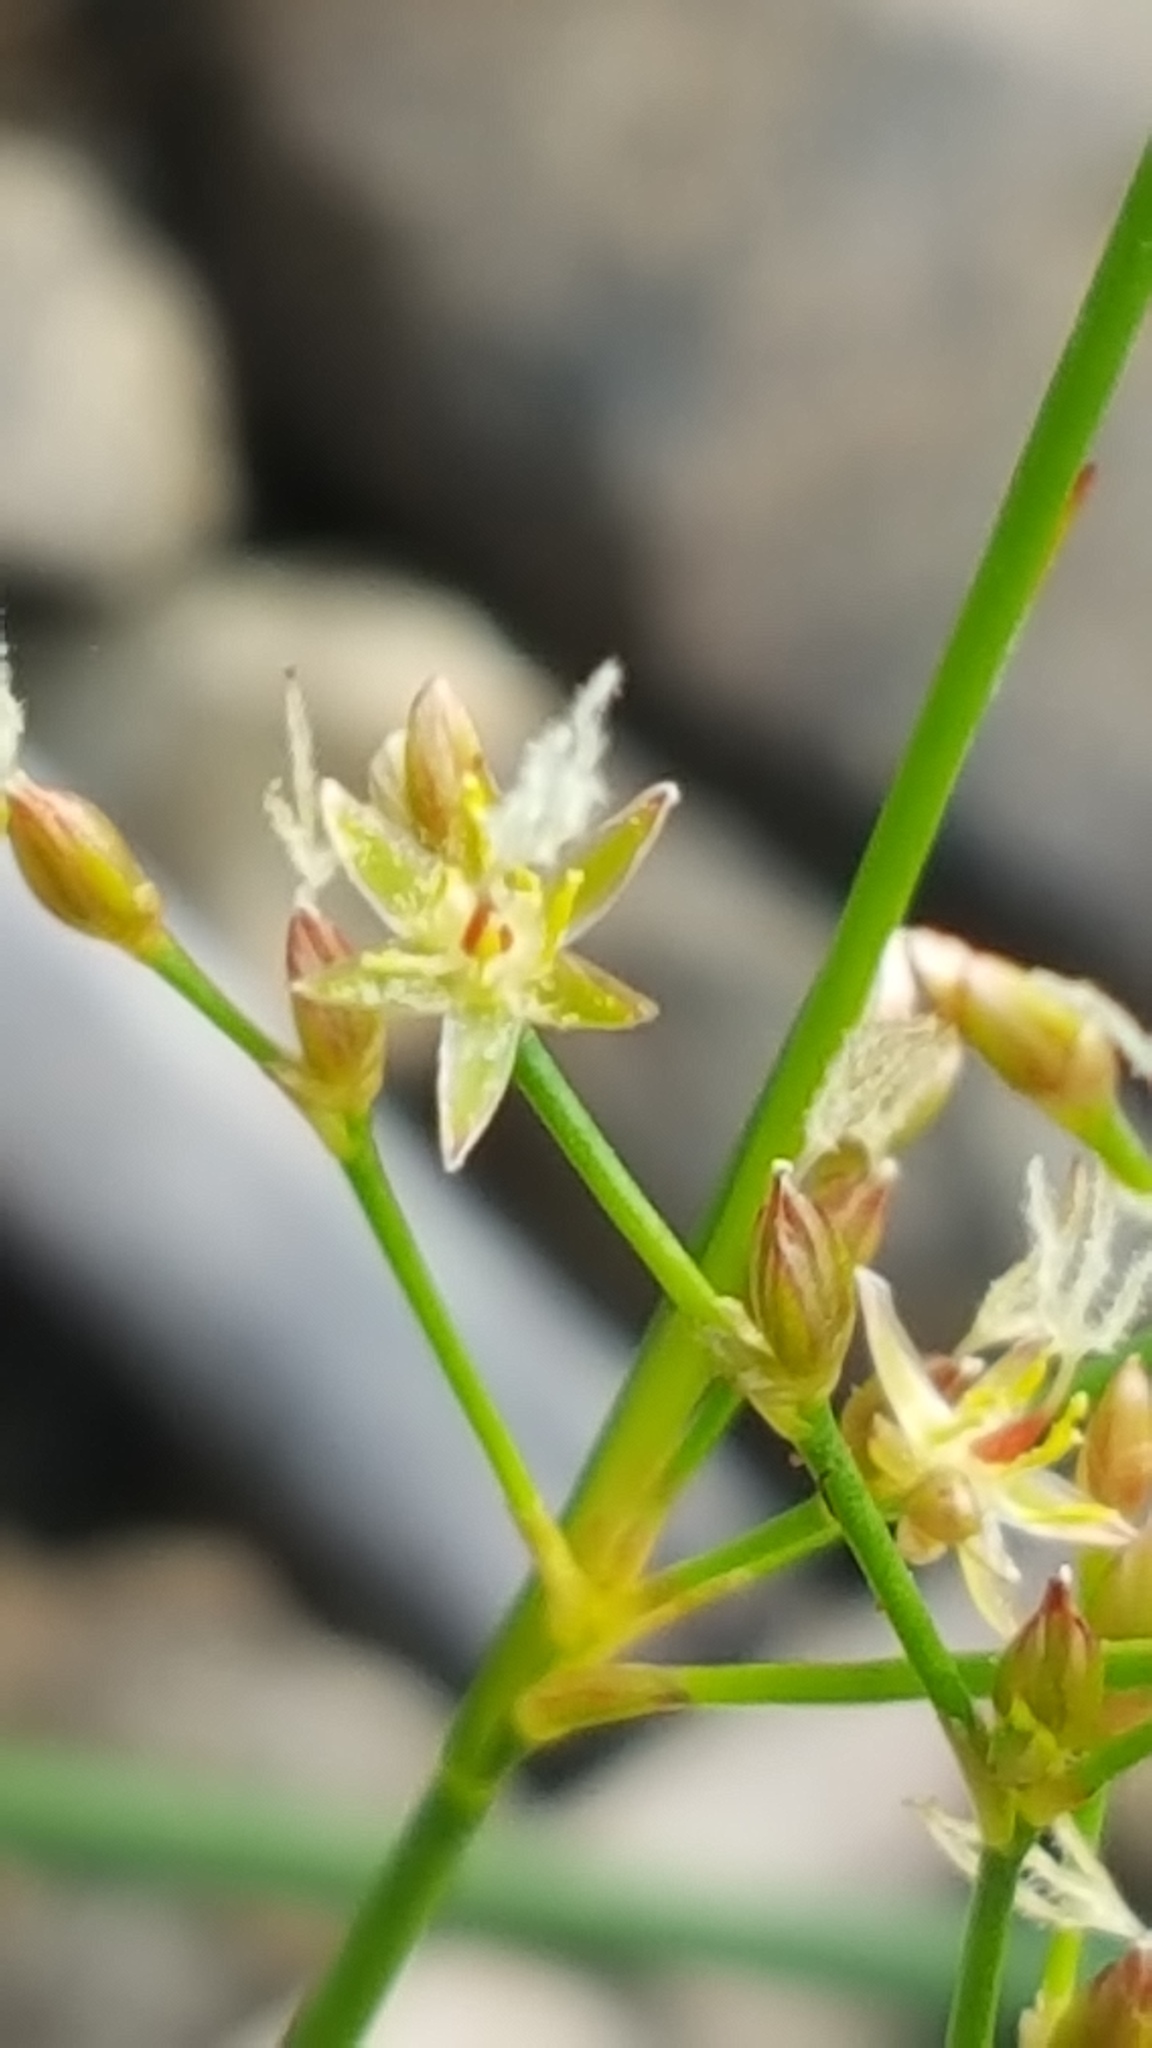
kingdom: Plantae
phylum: Tracheophyta
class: Liliopsida
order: Poales
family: Juncaceae
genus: Juncus
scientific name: Juncus pelocarpus
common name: Brown-fruited rush
